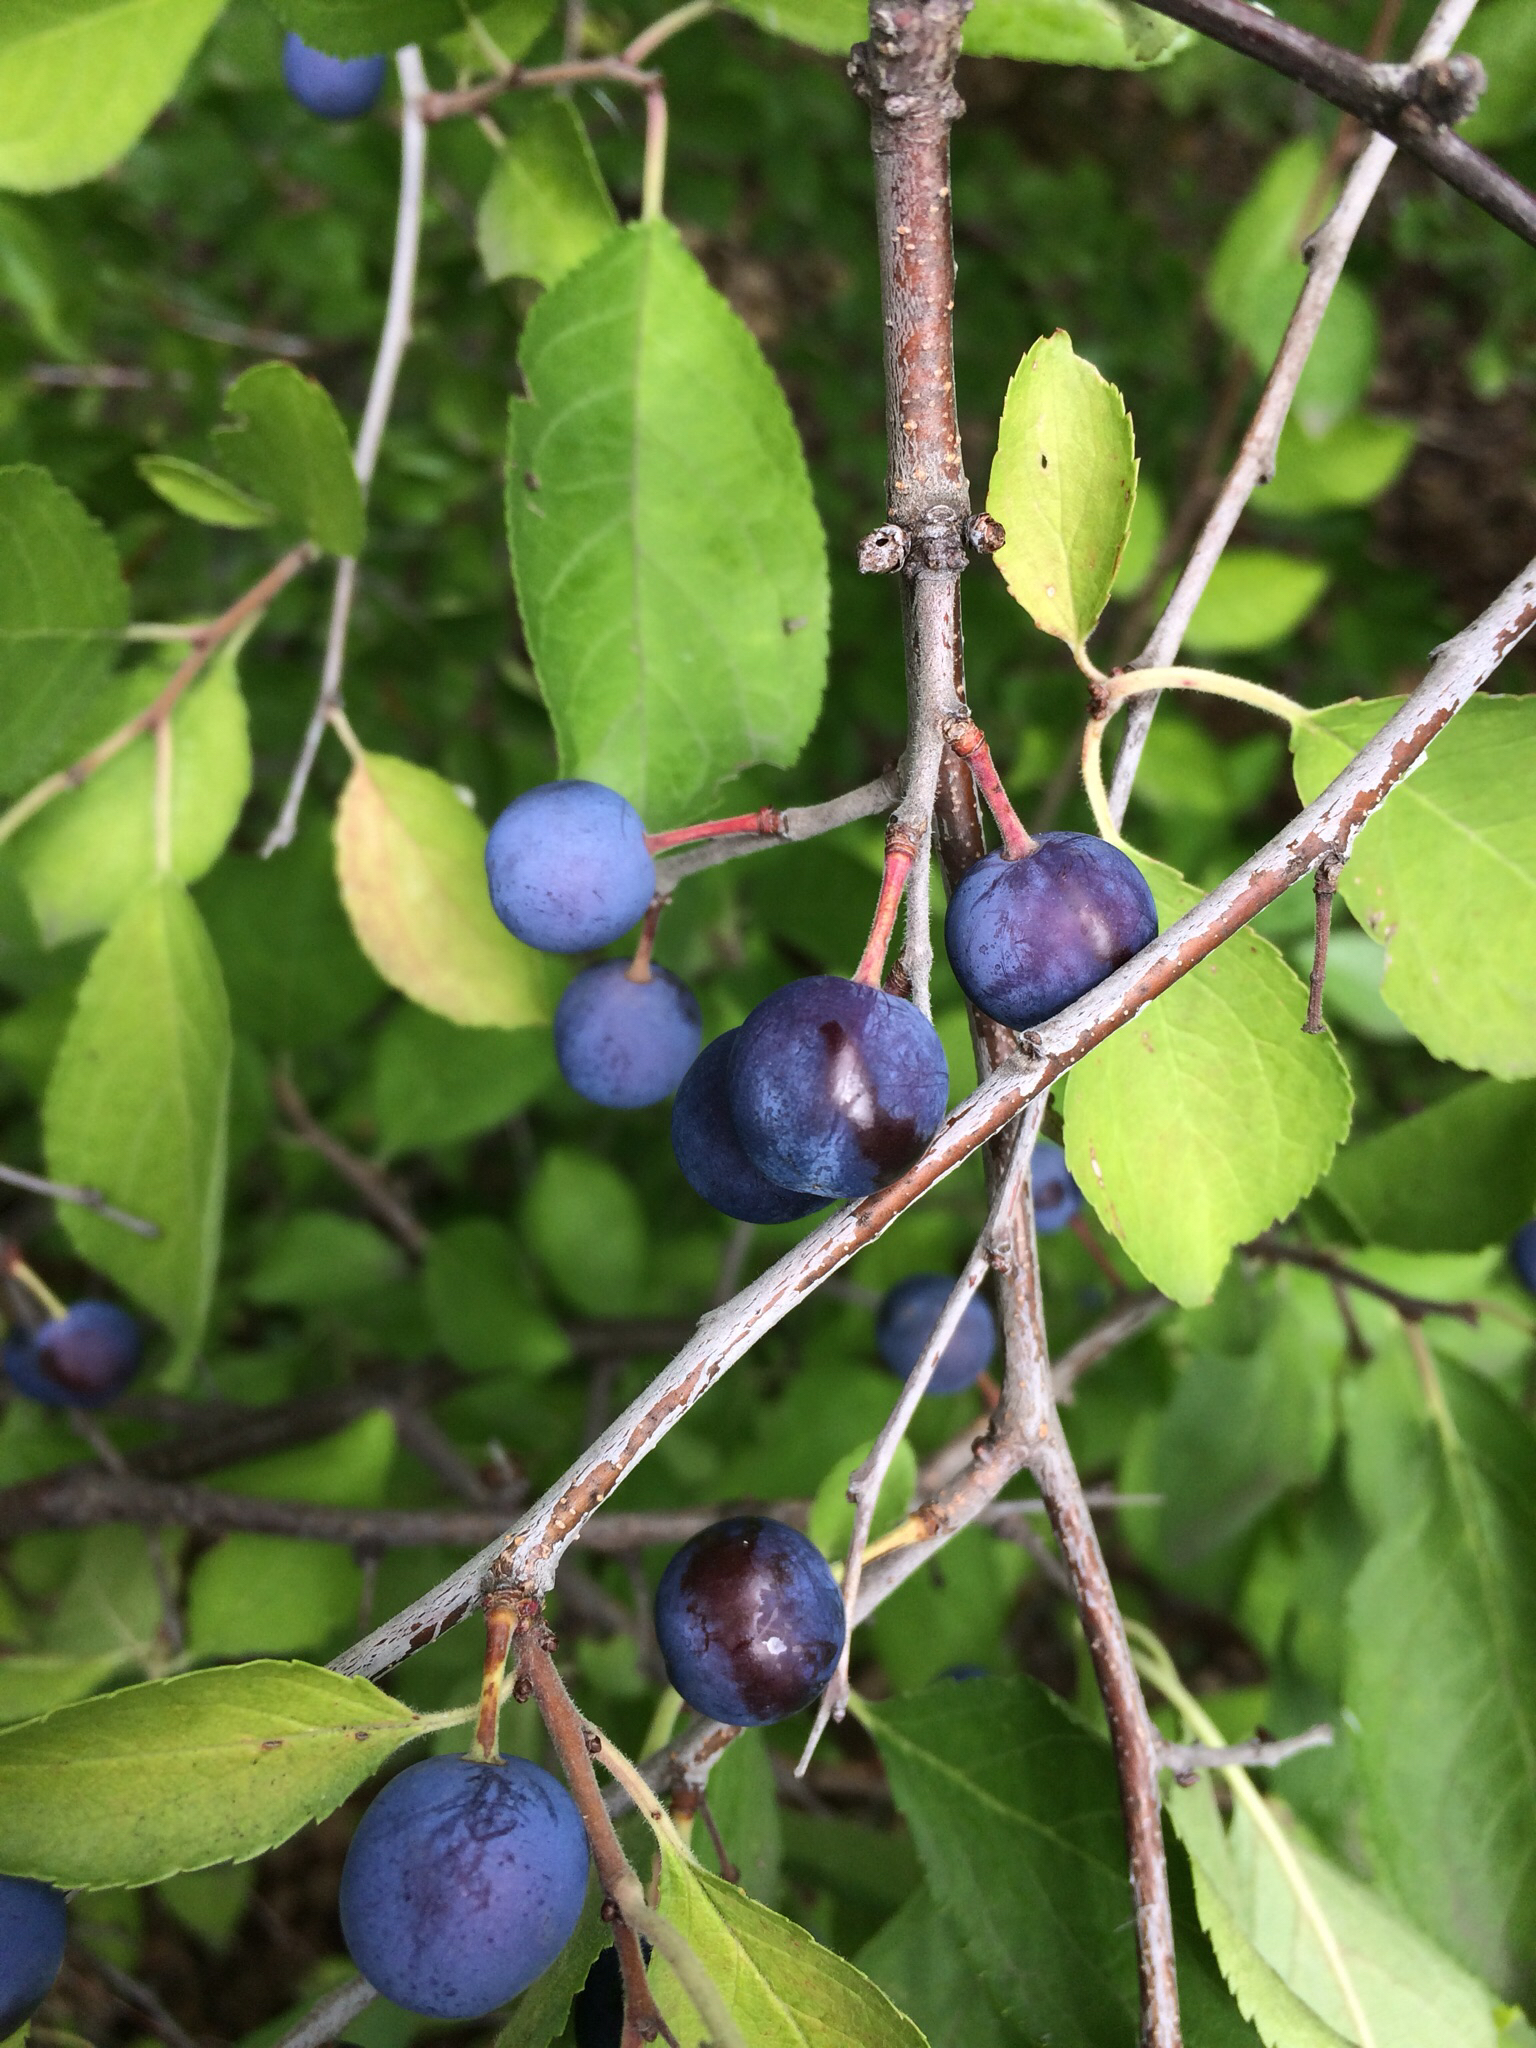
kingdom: Plantae
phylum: Tracheophyta
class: Magnoliopsida
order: Rosales
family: Rosaceae
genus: Prunus
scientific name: Prunus spinosa
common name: Blackthorn
